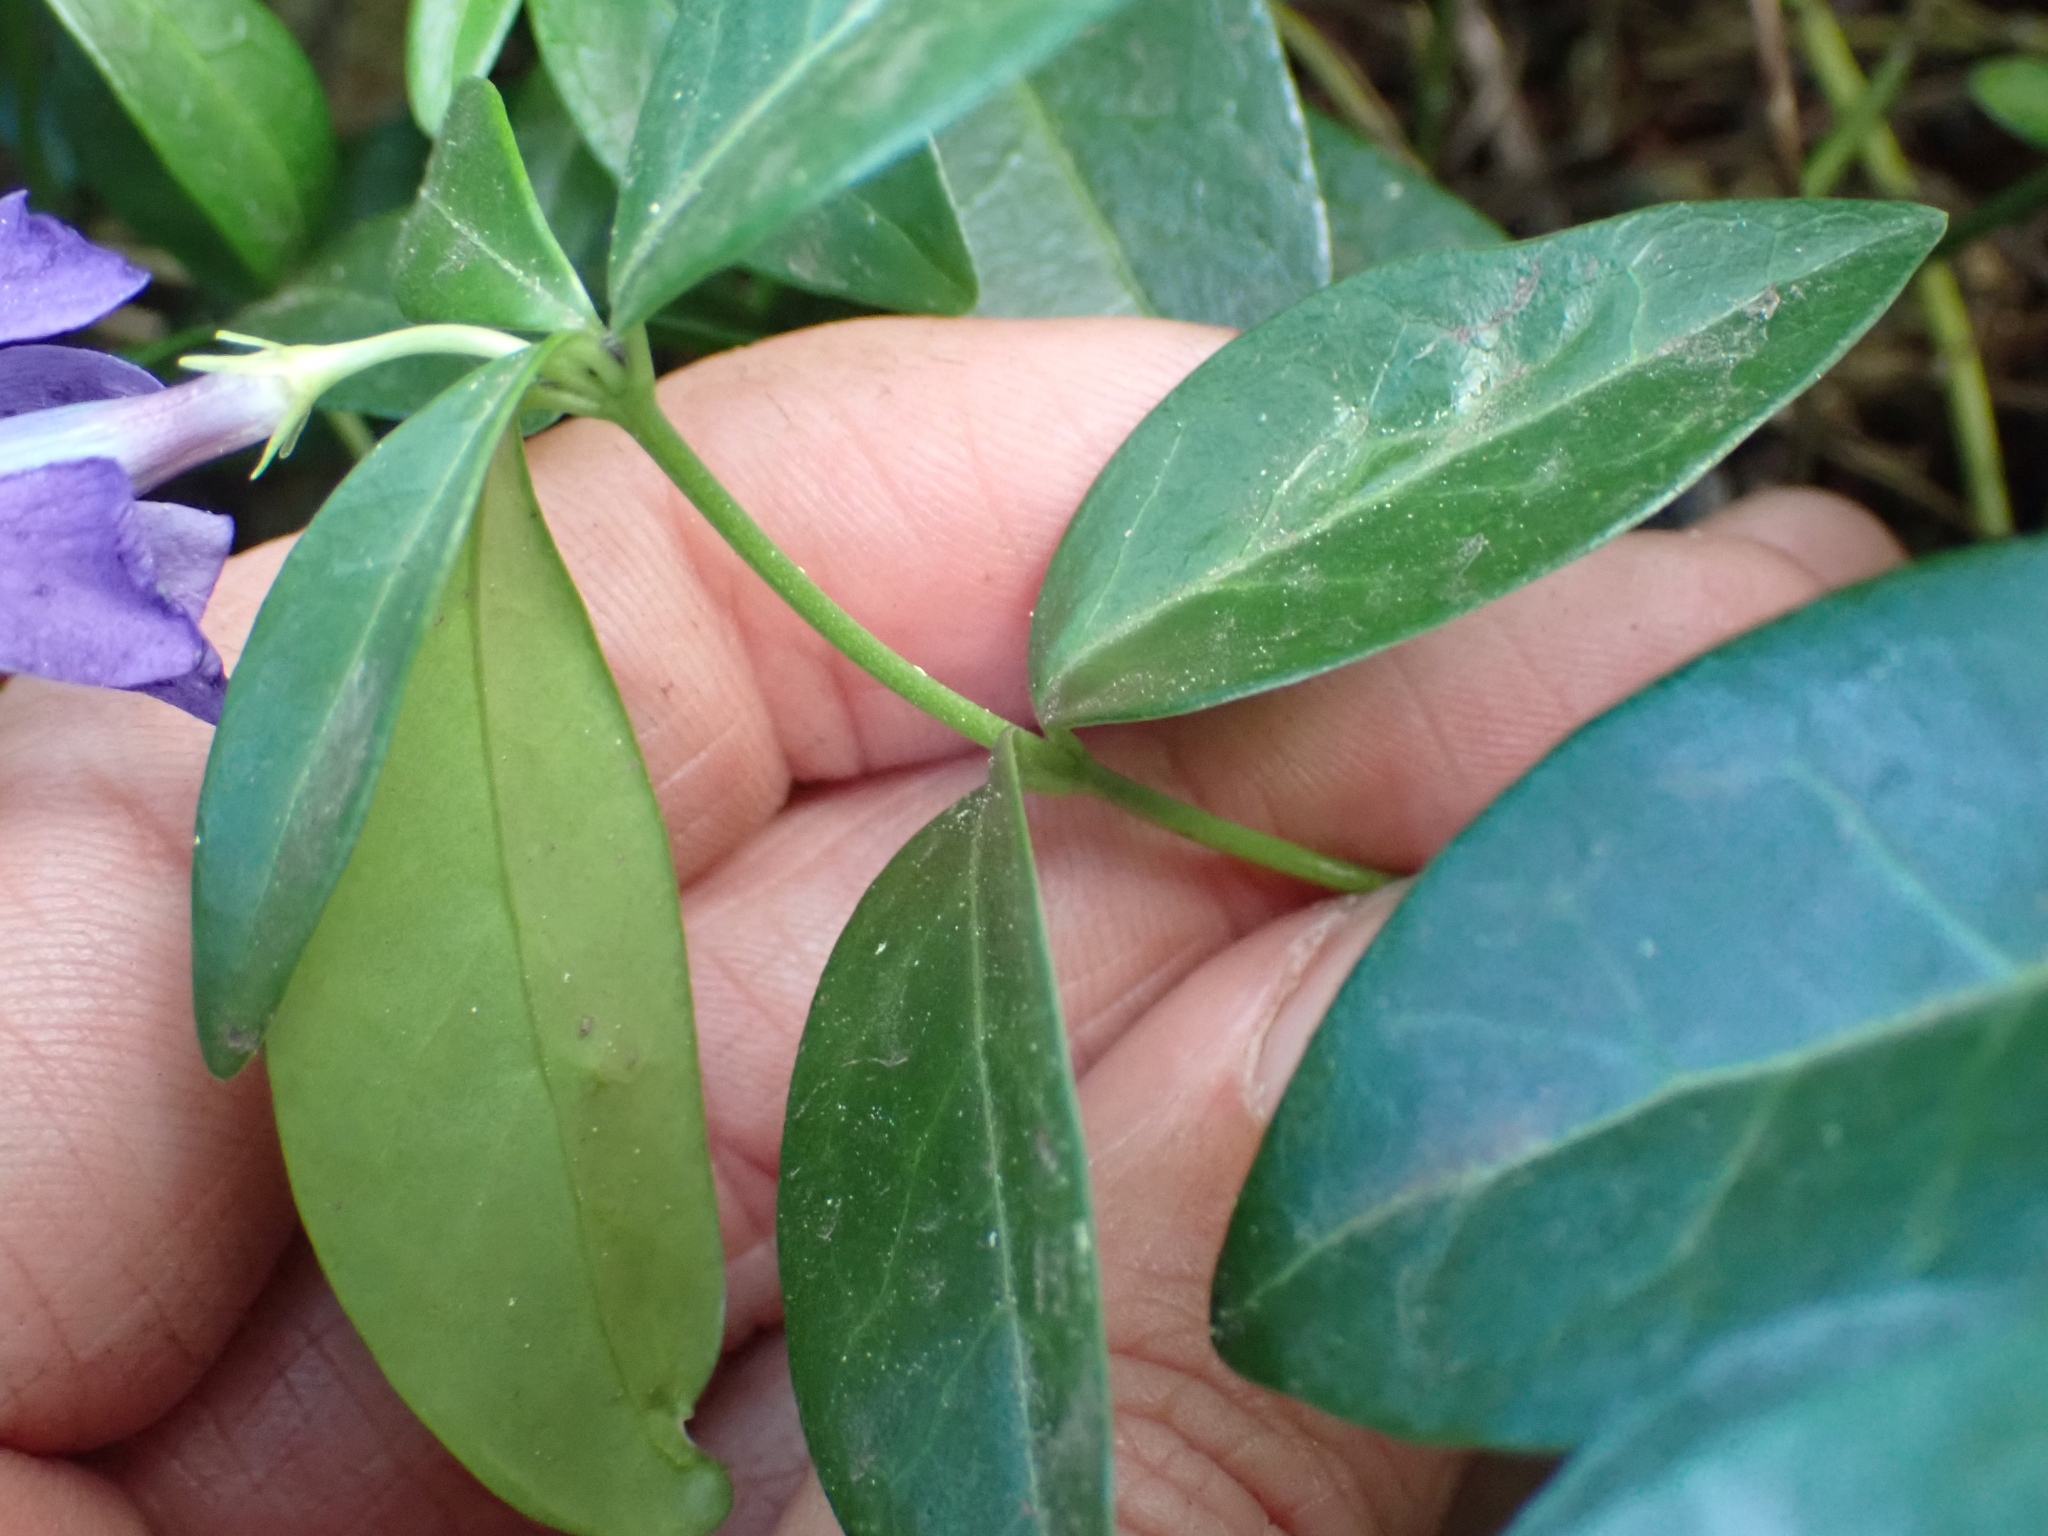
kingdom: Plantae
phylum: Tracheophyta
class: Magnoliopsida
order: Gentianales
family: Apocynaceae
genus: Vinca
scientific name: Vinca minor
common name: Lesser periwinkle
